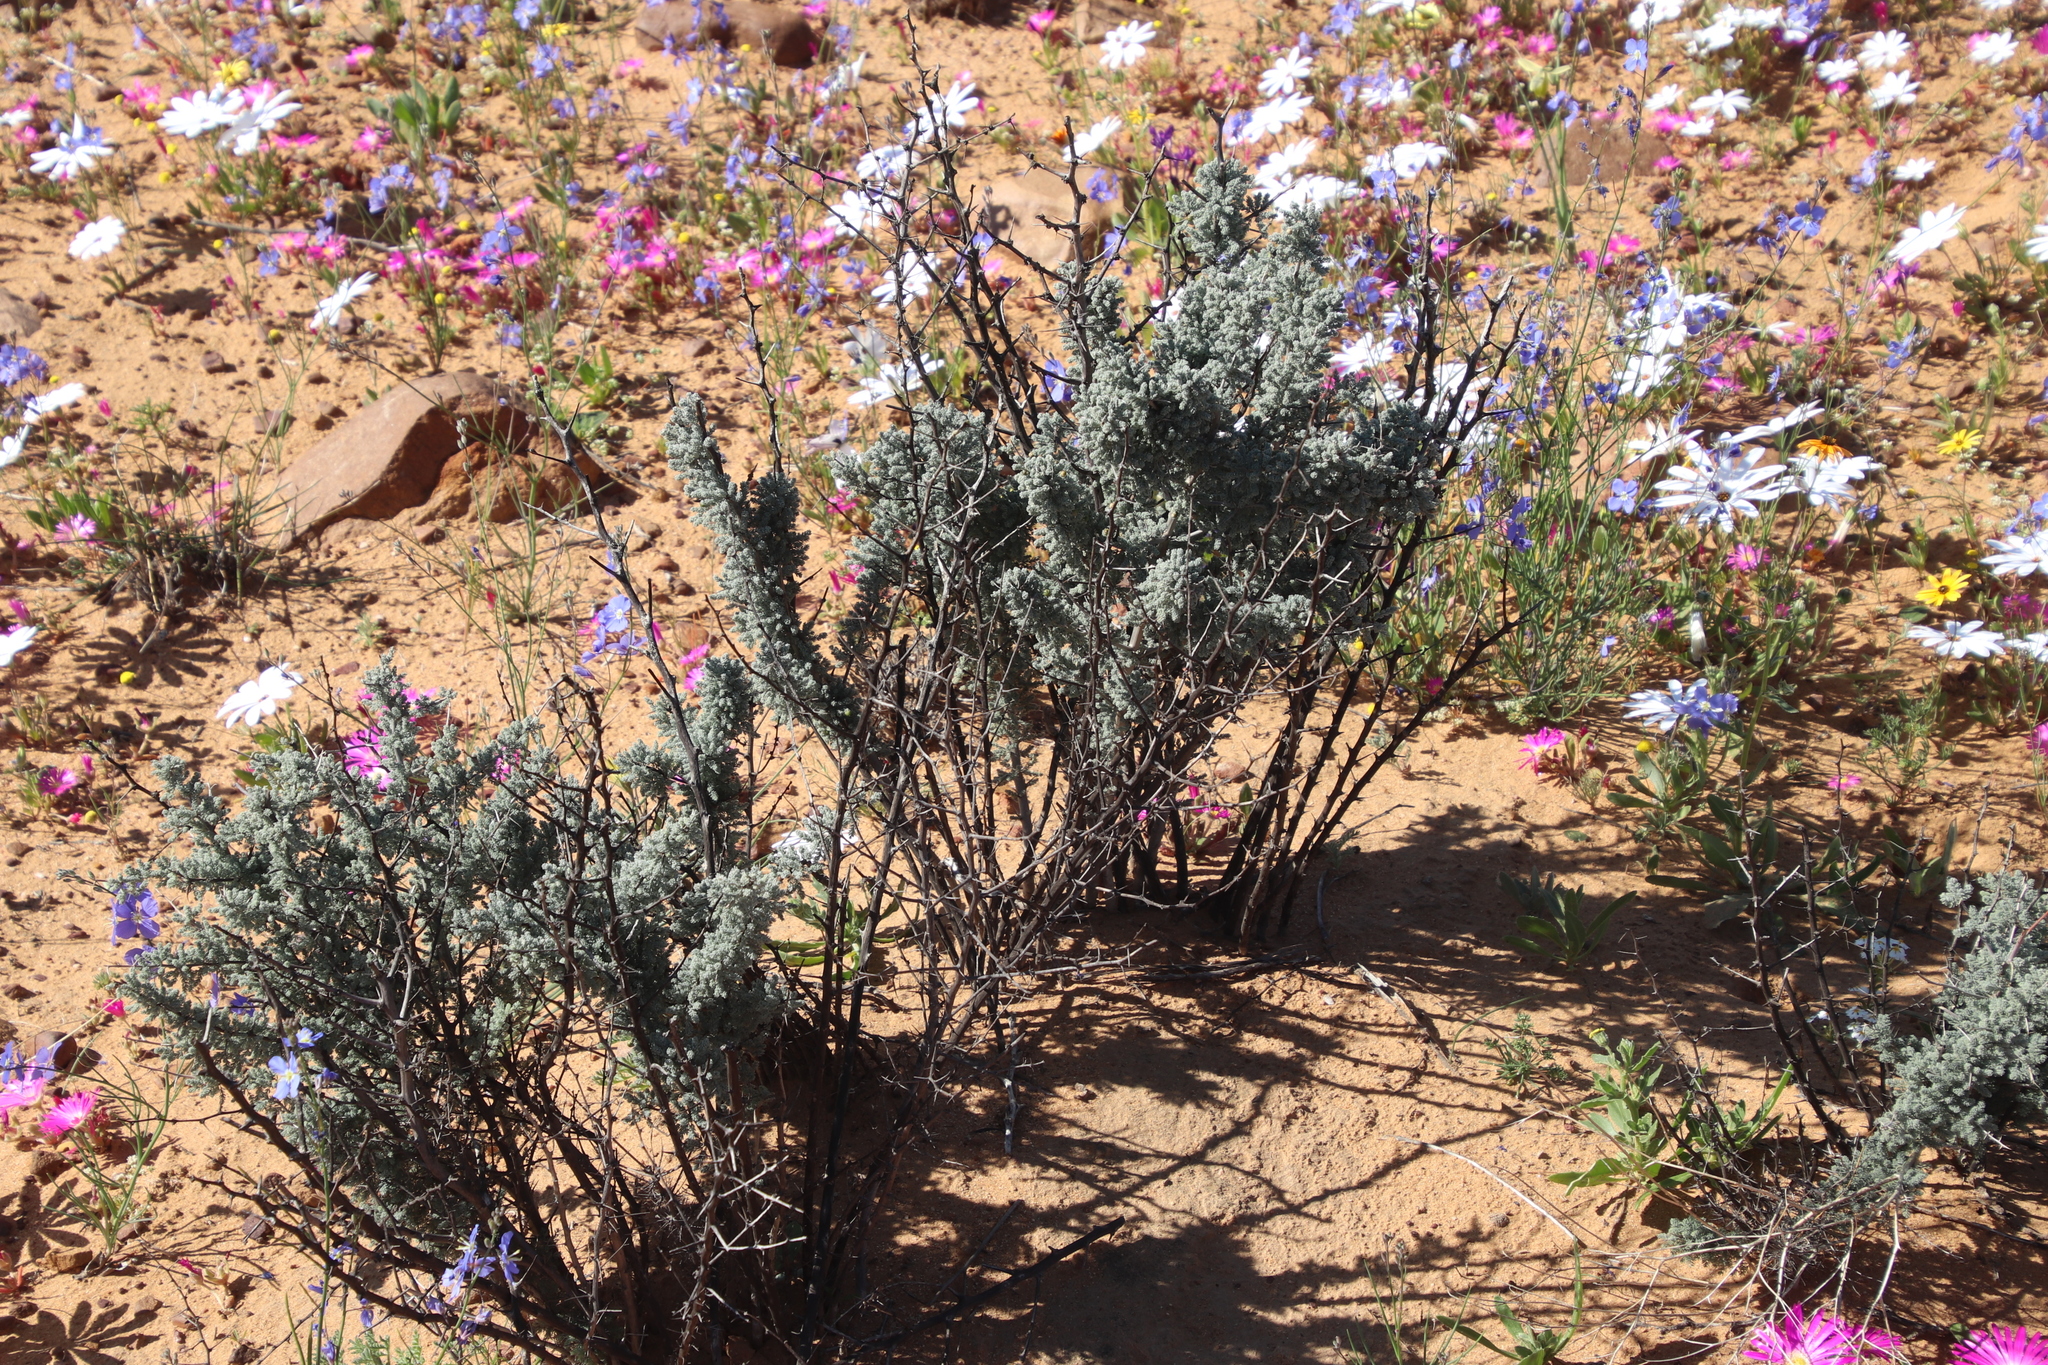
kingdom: Plantae
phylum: Tracheophyta
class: Liliopsida
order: Asparagales
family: Asparagaceae
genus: Asparagus
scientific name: Asparagus capensis
